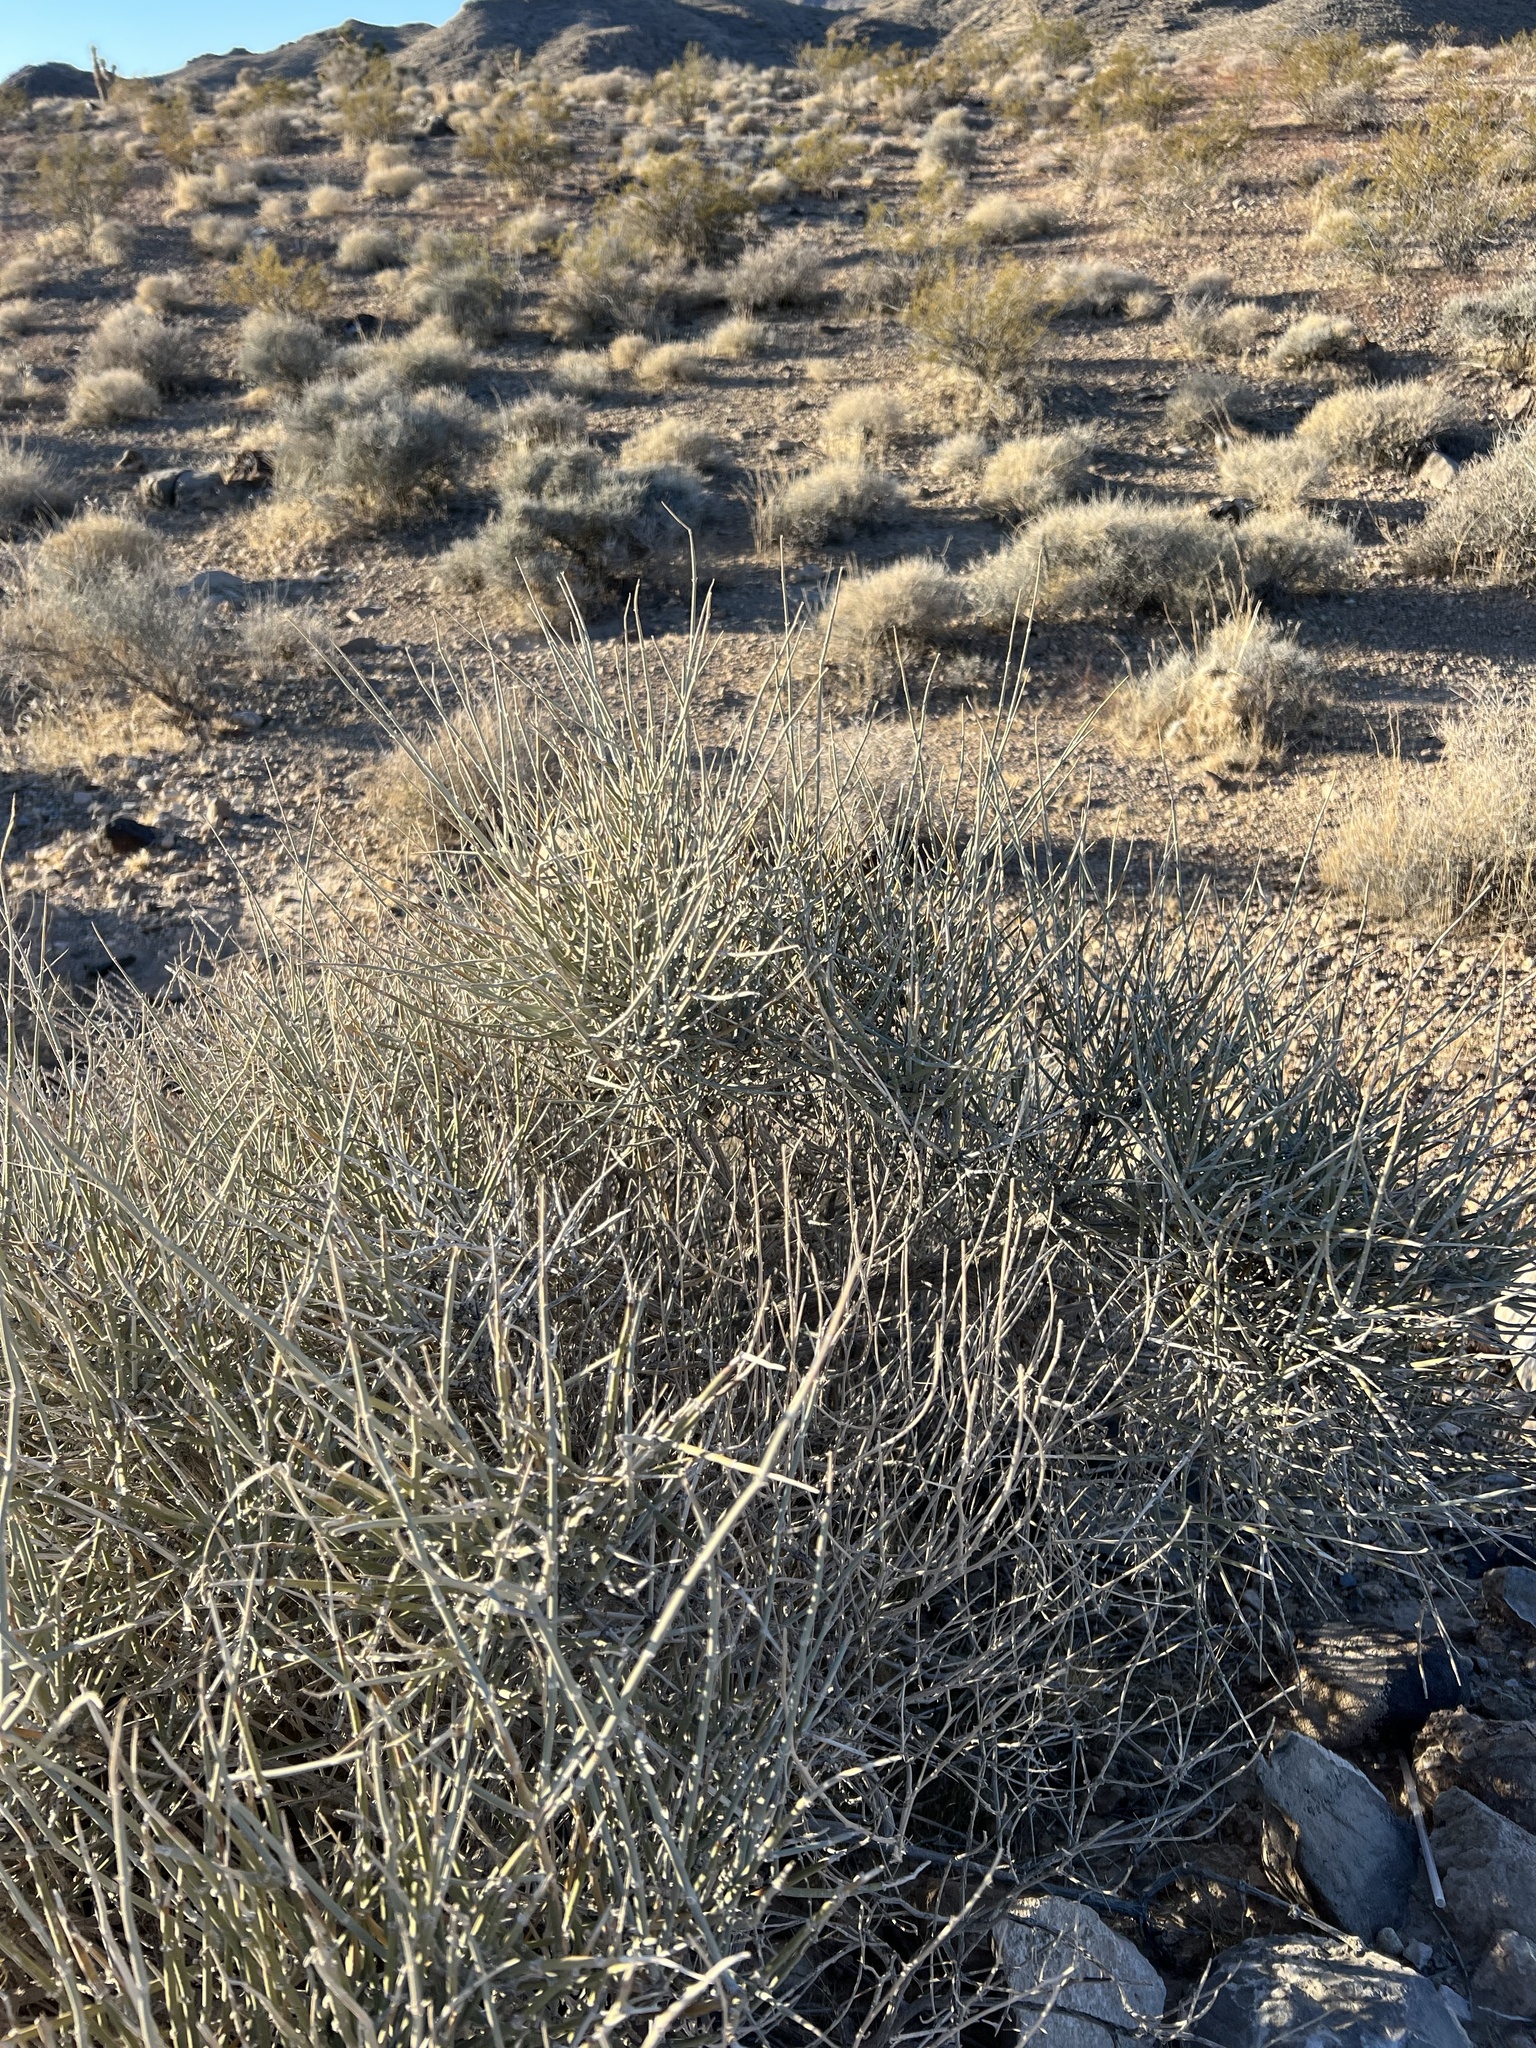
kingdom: Plantae
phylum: Tracheophyta
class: Gnetopsida
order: Ephedrales
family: Ephedraceae
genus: Ephedra
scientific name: Ephedra nevadensis
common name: Gray ephedra
